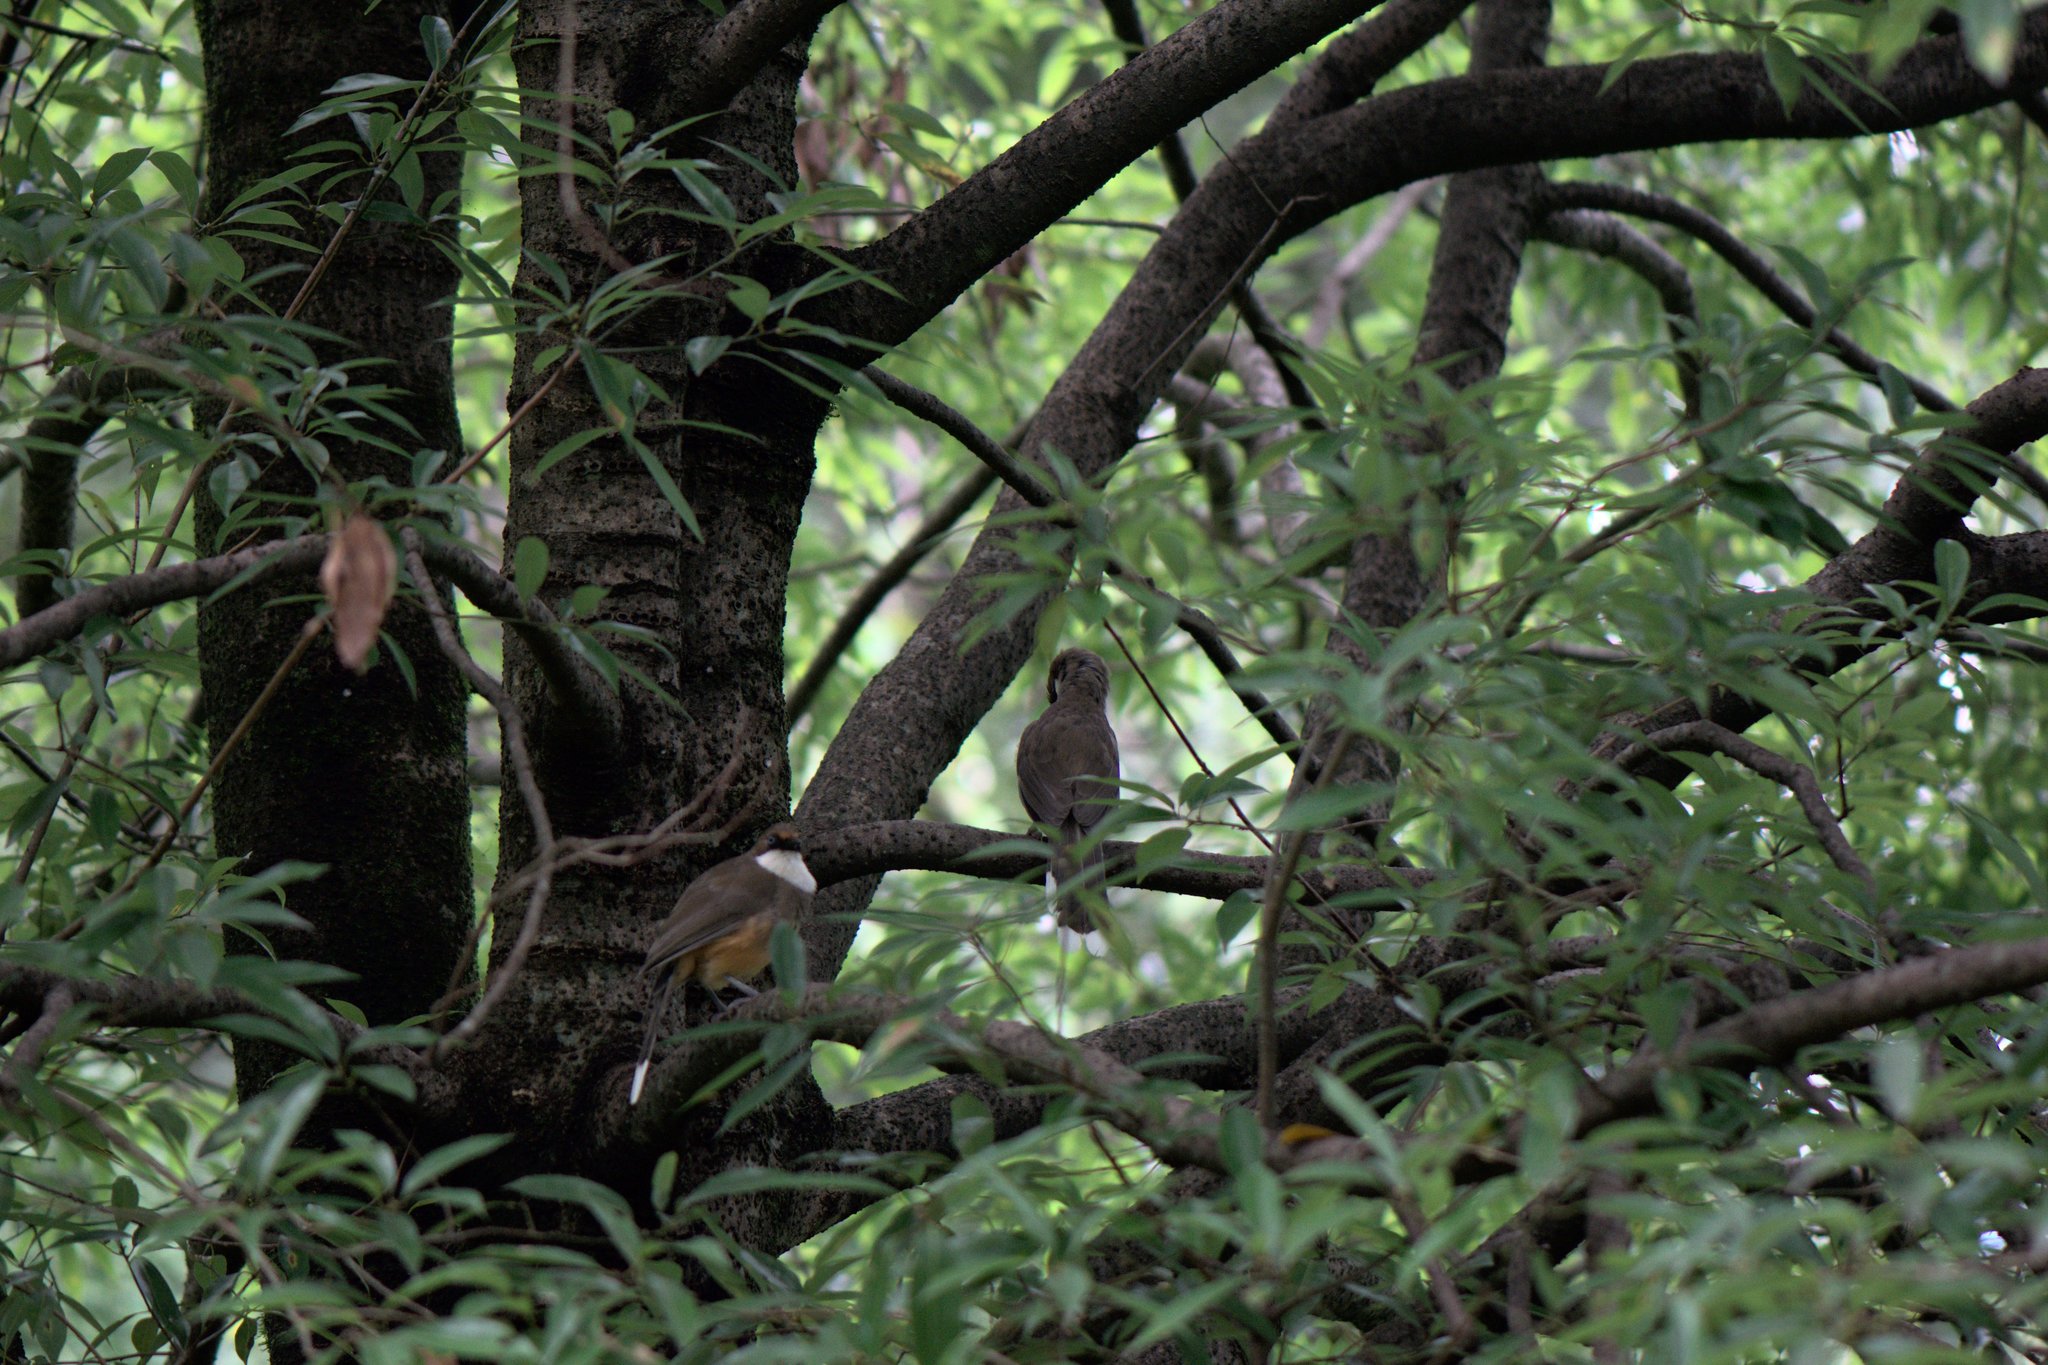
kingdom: Animalia
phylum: Chordata
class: Aves
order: Passeriformes
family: Leiothrichidae
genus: Garrulax
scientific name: Garrulax albogularis
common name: White-throated laughingthrush
